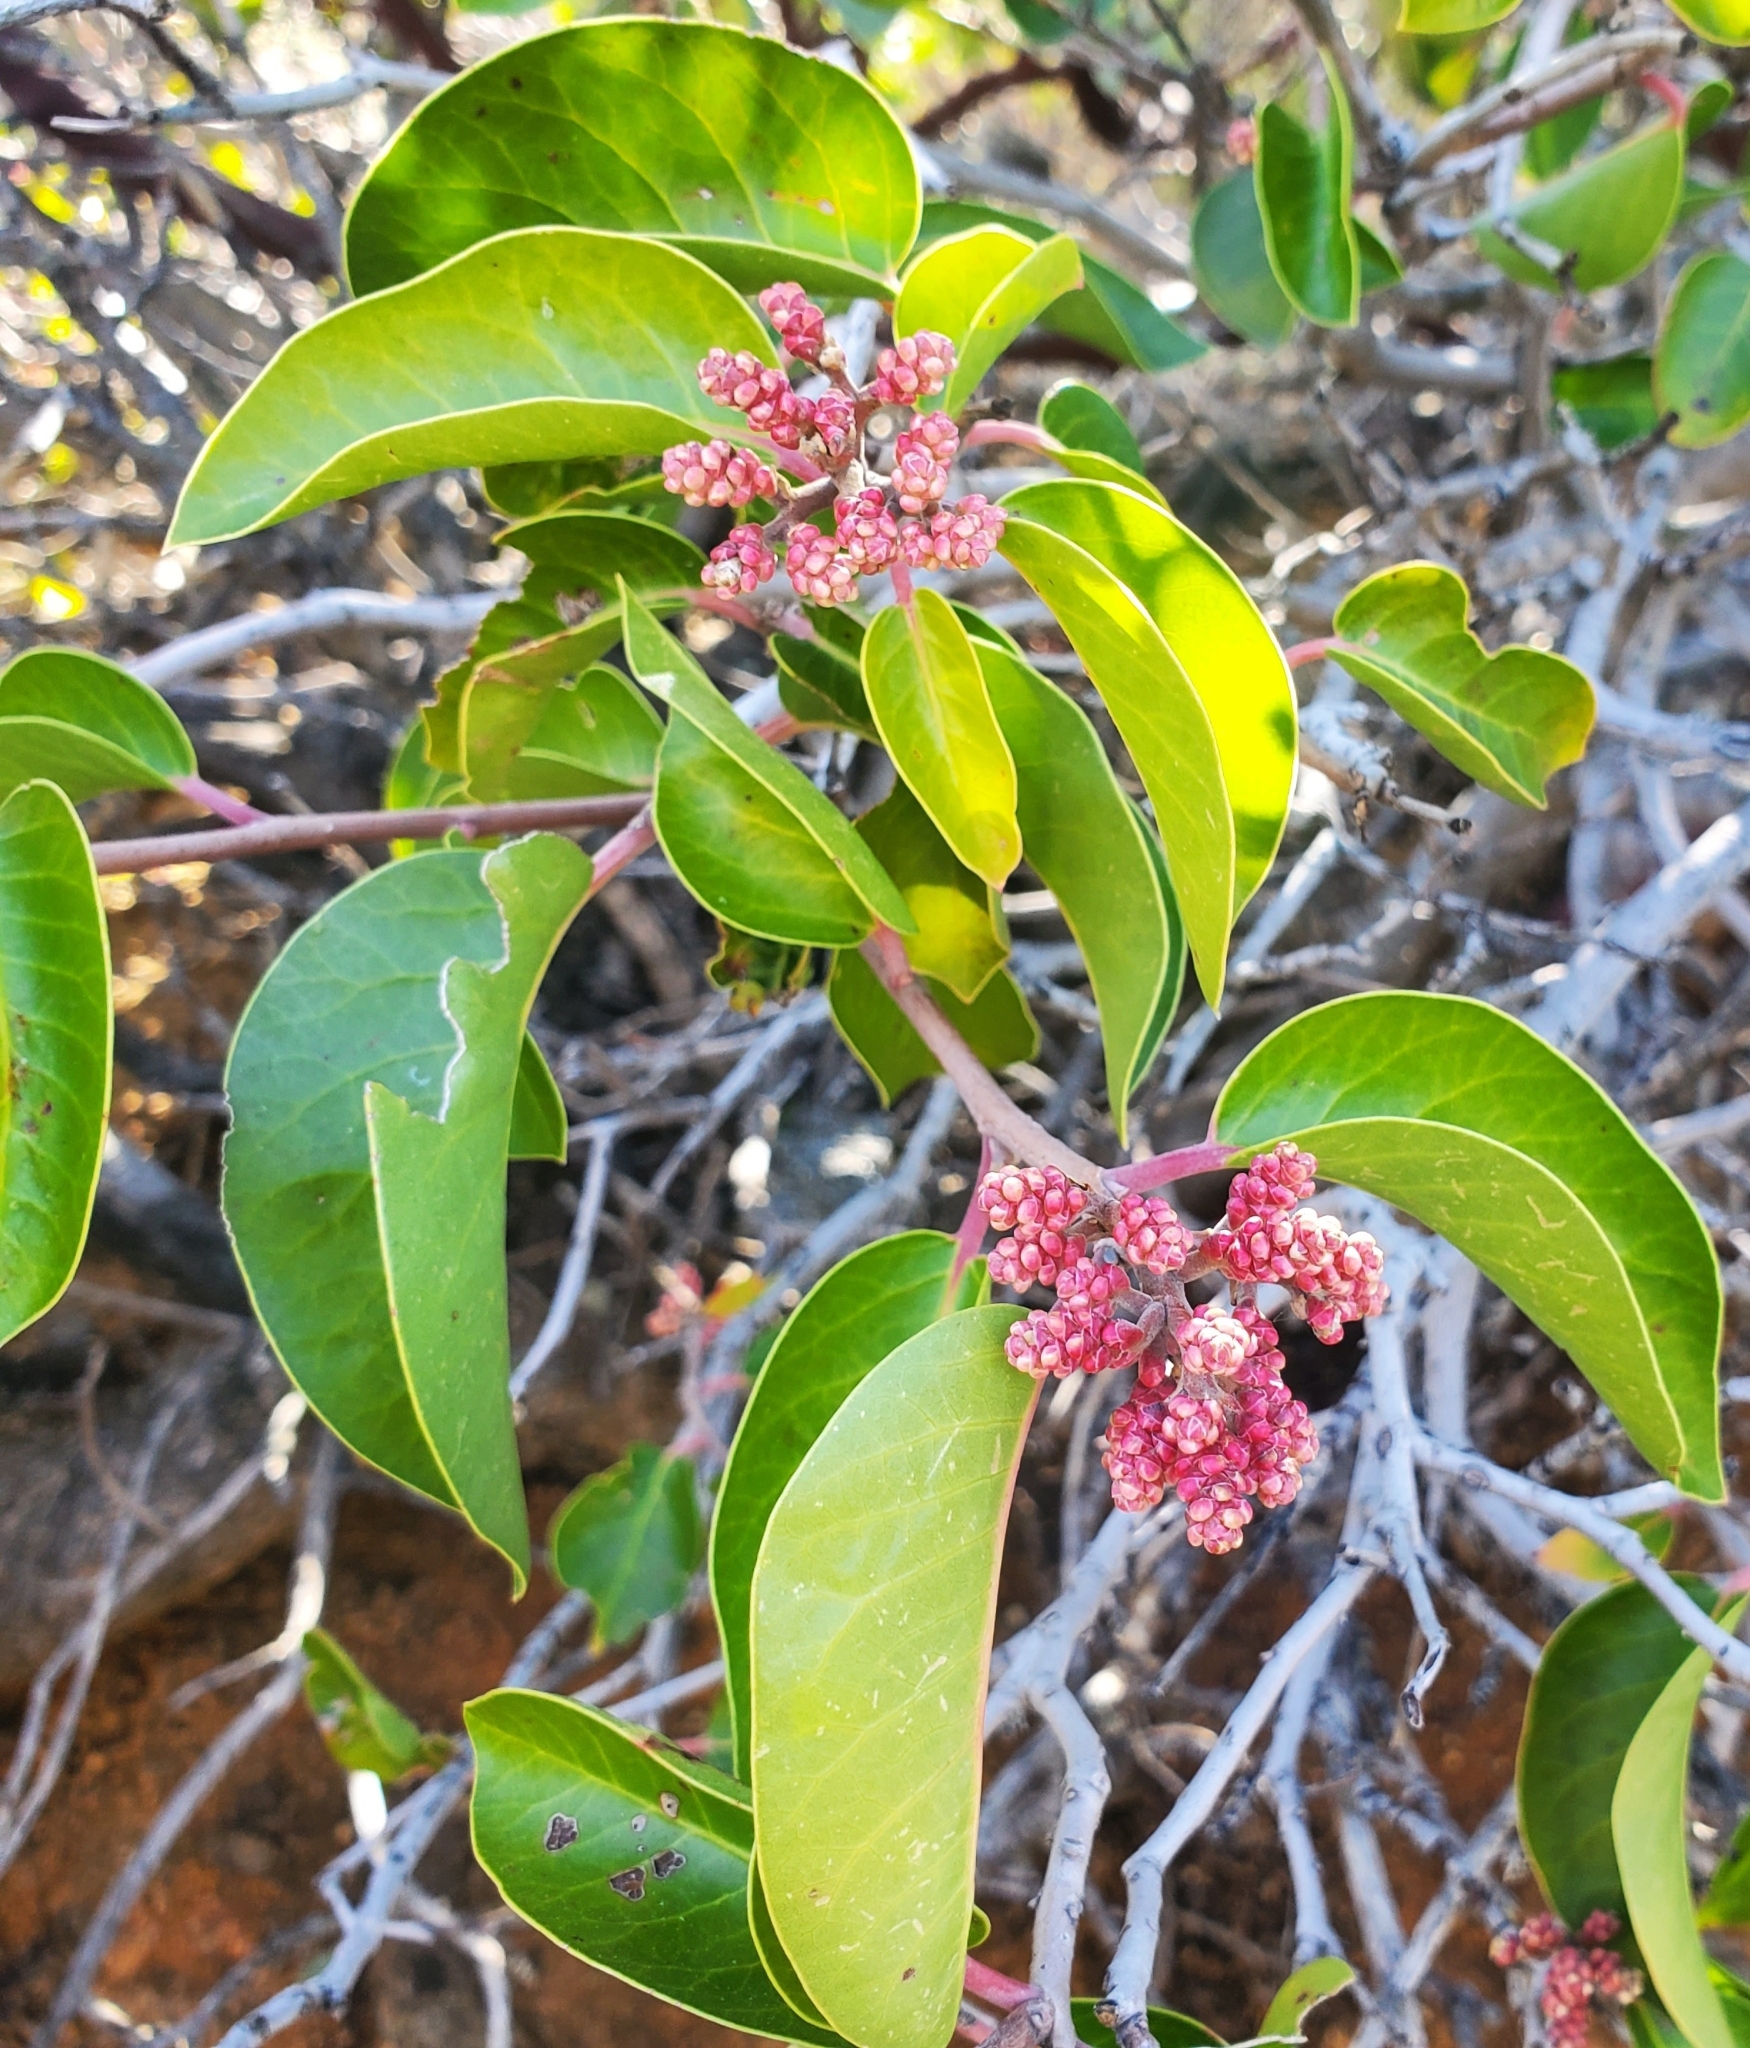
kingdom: Plantae
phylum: Tracheophyta
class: Magnoliopsida
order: Sapindales
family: Anacardiaceae
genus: Rhus
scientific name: Rhus ovata
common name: Sugar sumac
